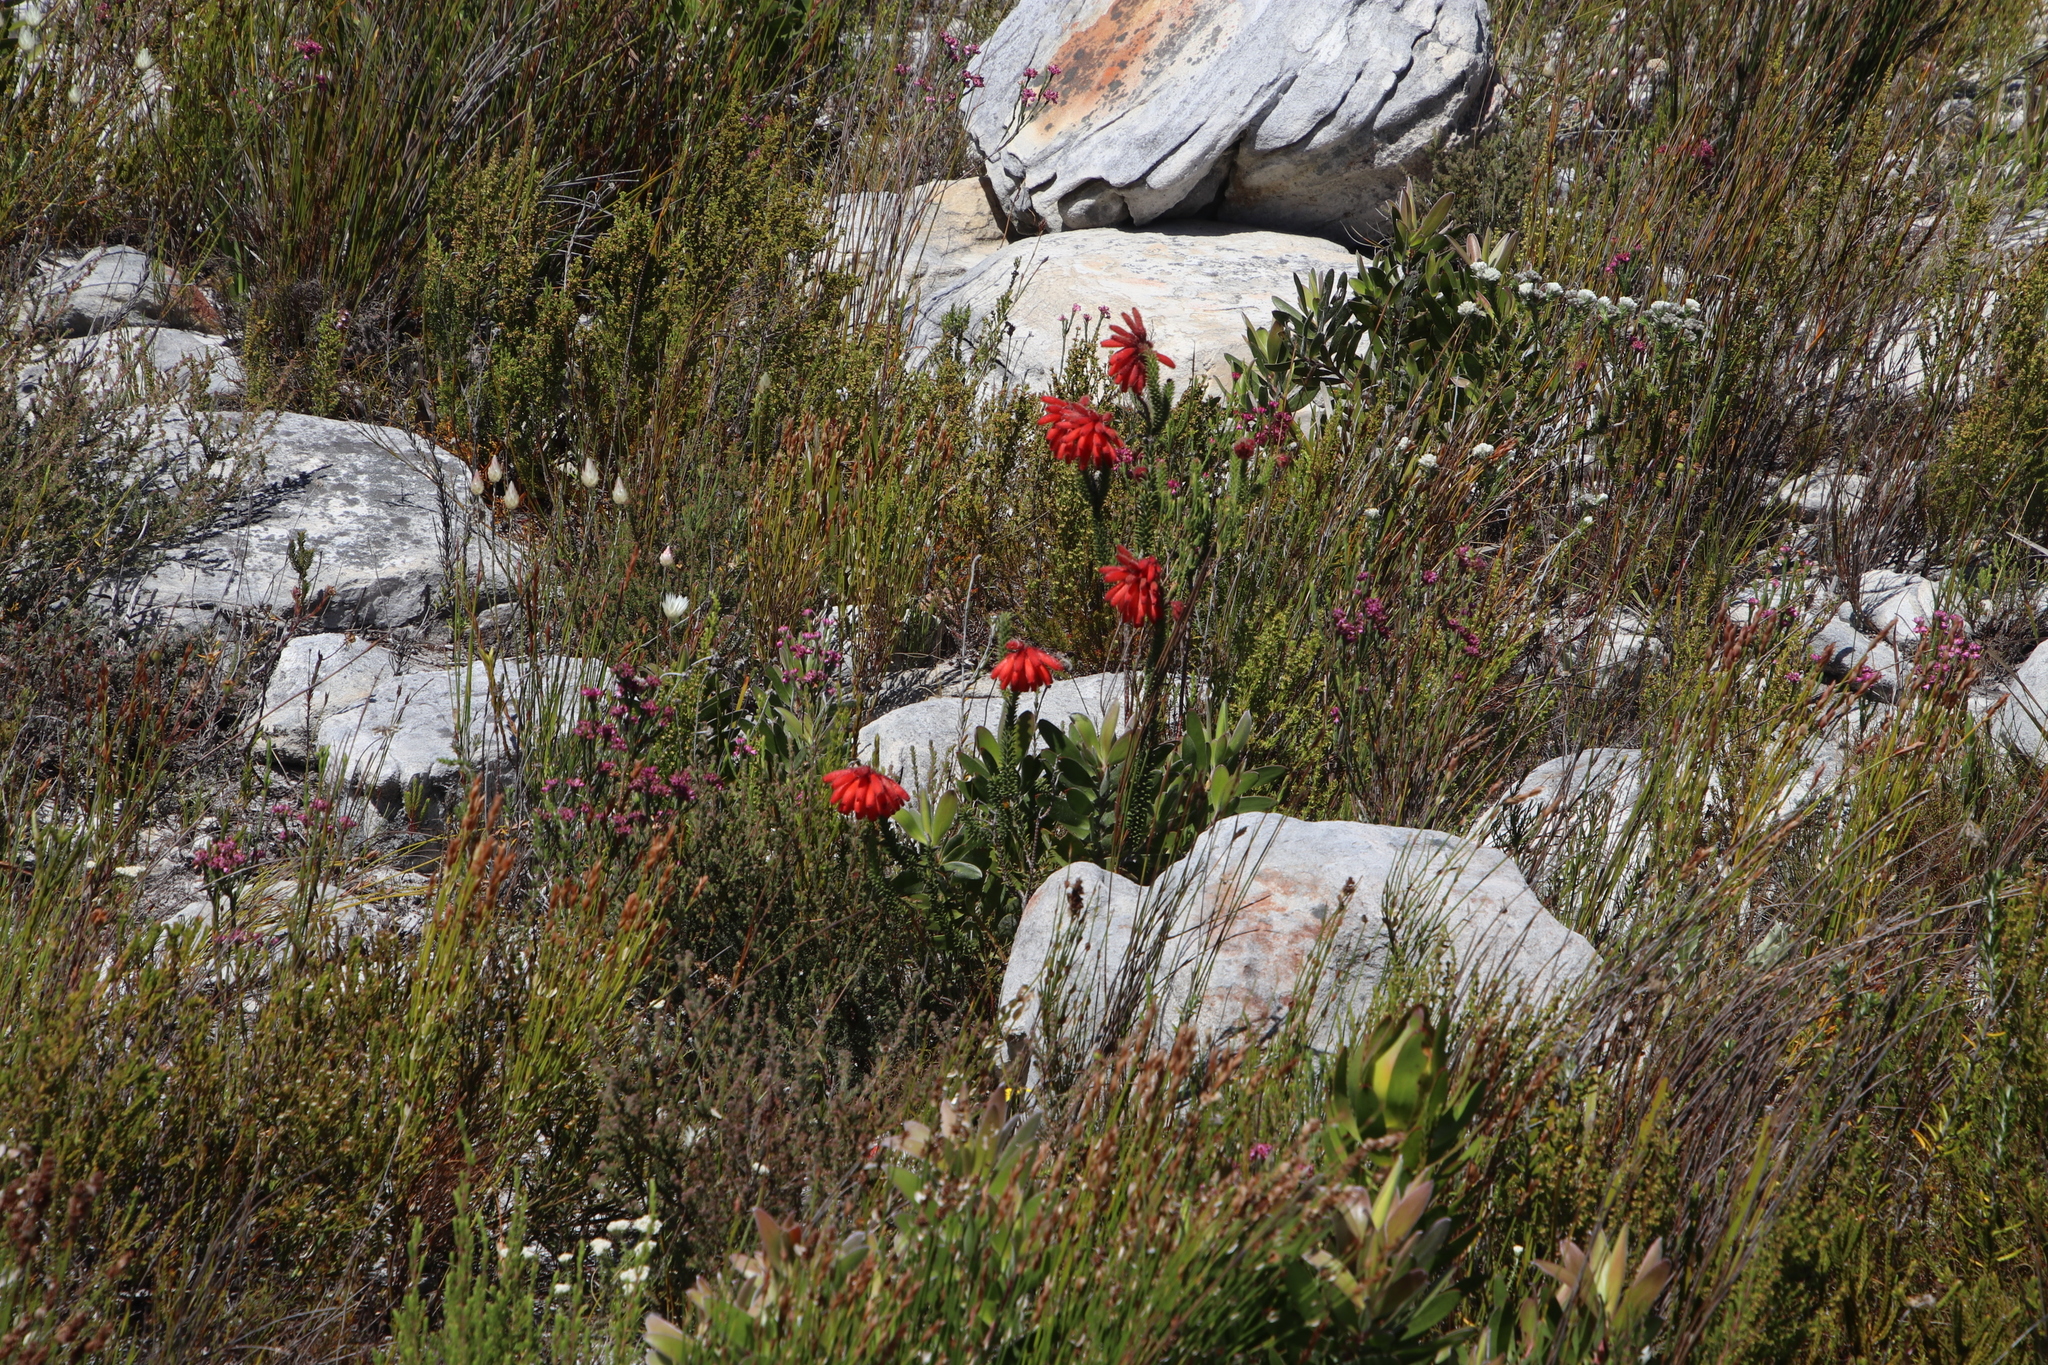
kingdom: Plantae
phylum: Tracheophyta
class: Magnoliopsida
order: Ericales
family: Ericaceae
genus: Erica
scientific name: Erica cerinthoides
